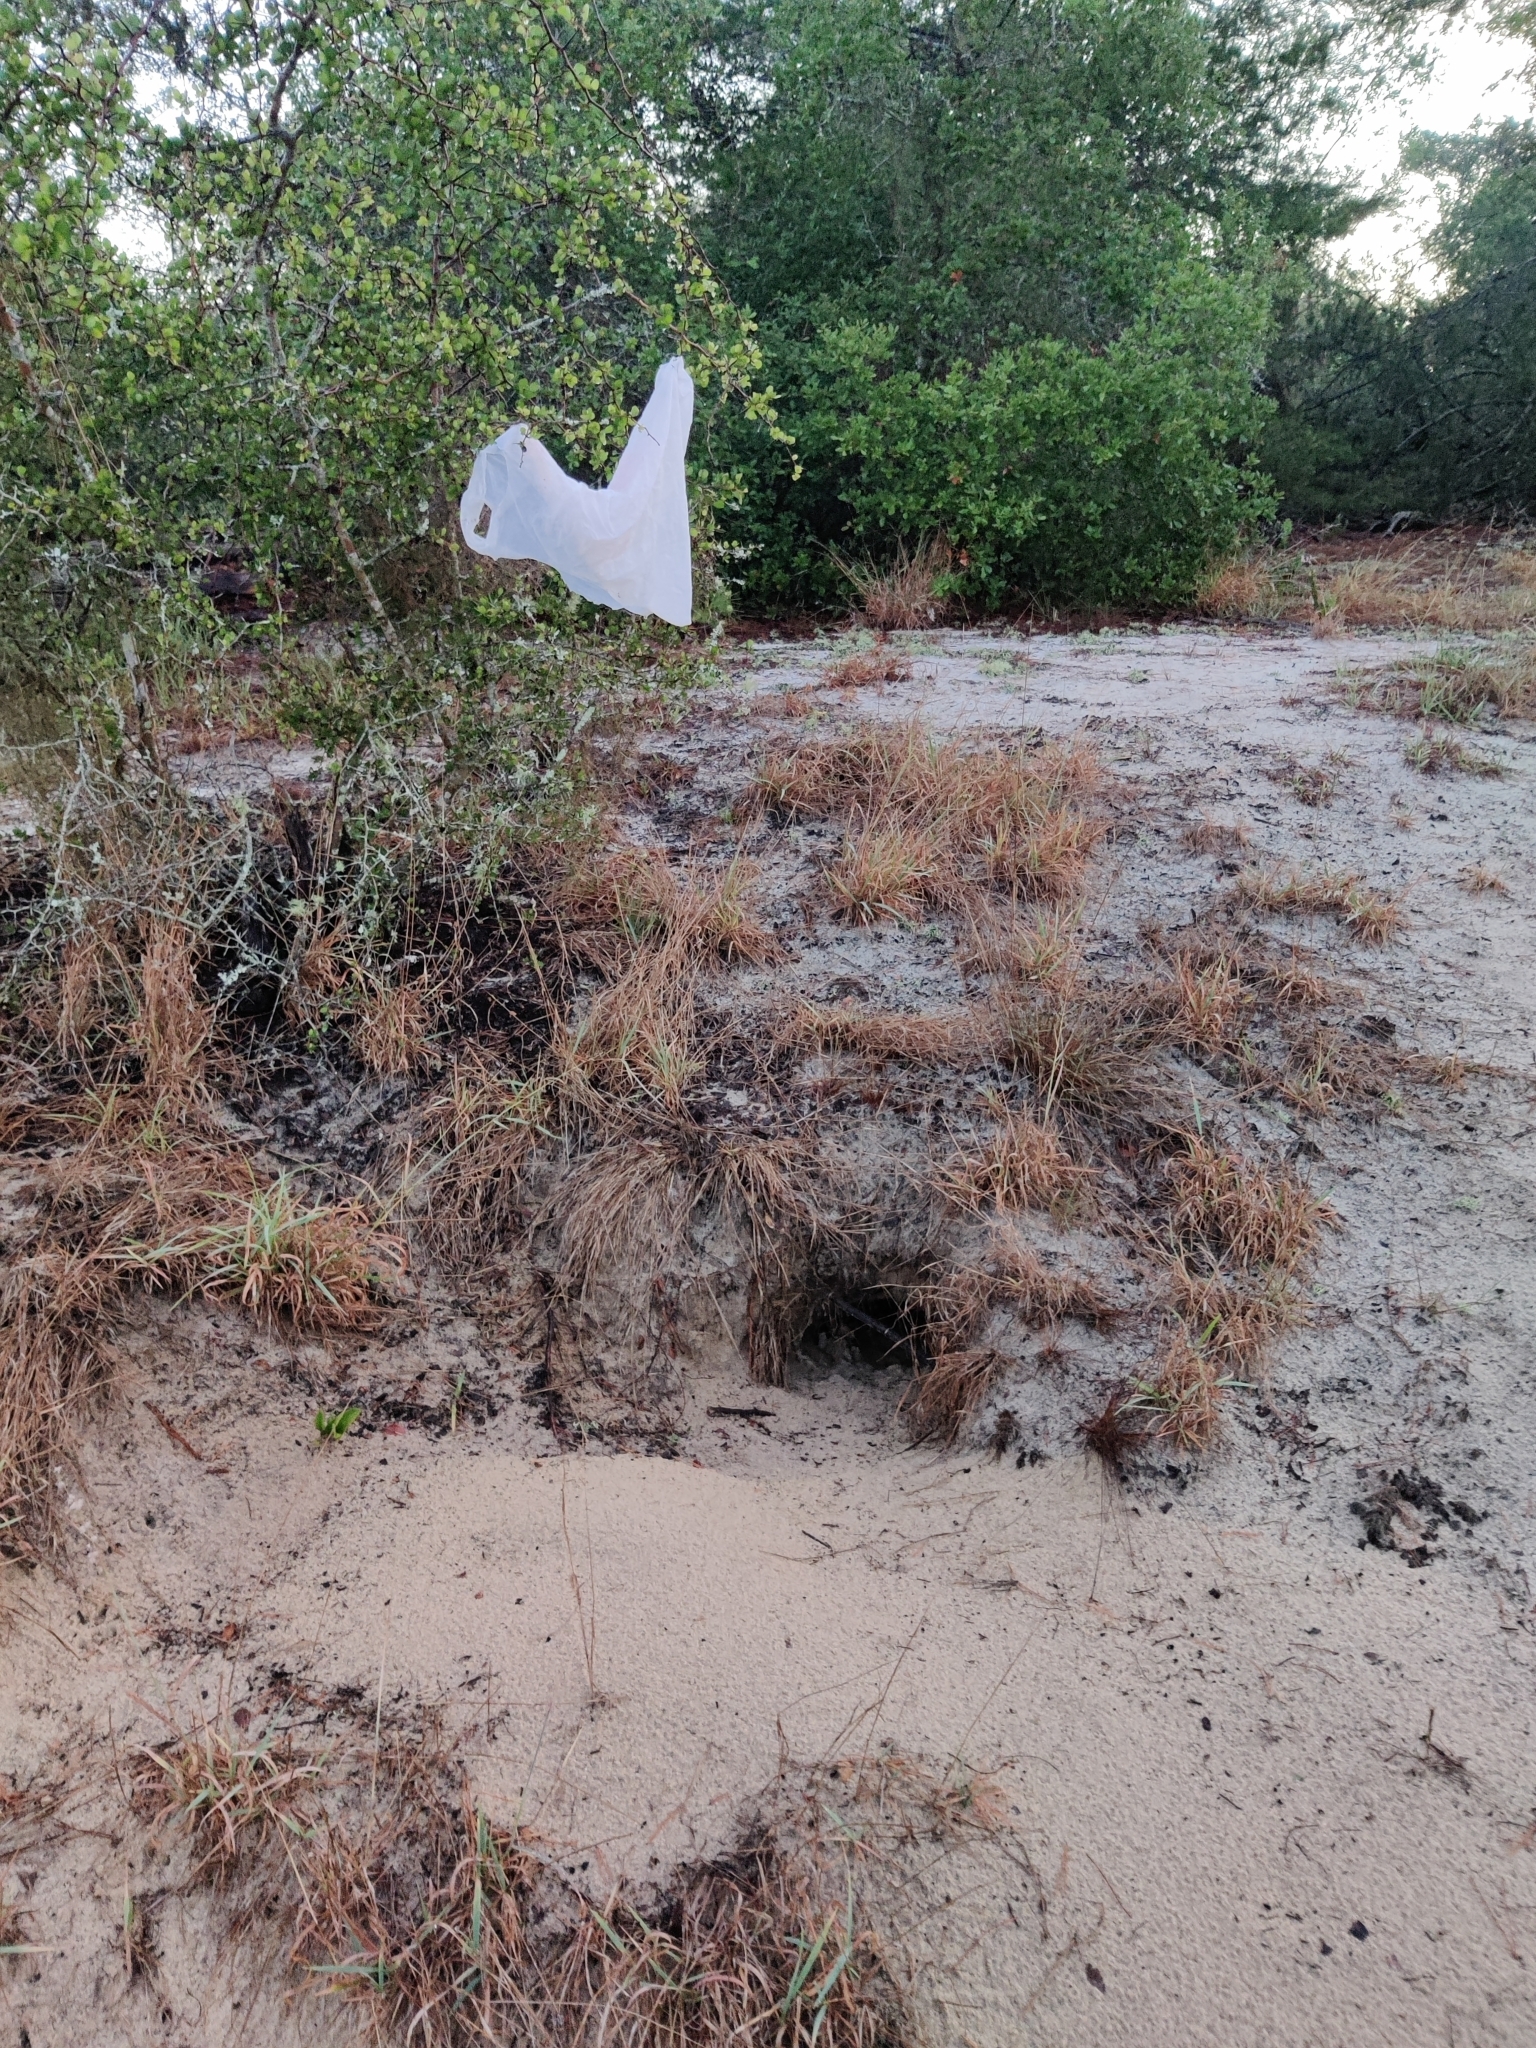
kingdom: Animalia
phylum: Chordata
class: Testudines
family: Testudinidae
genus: Gopherus
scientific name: Gopherus polyphemus
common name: Florida gopher tortoise
